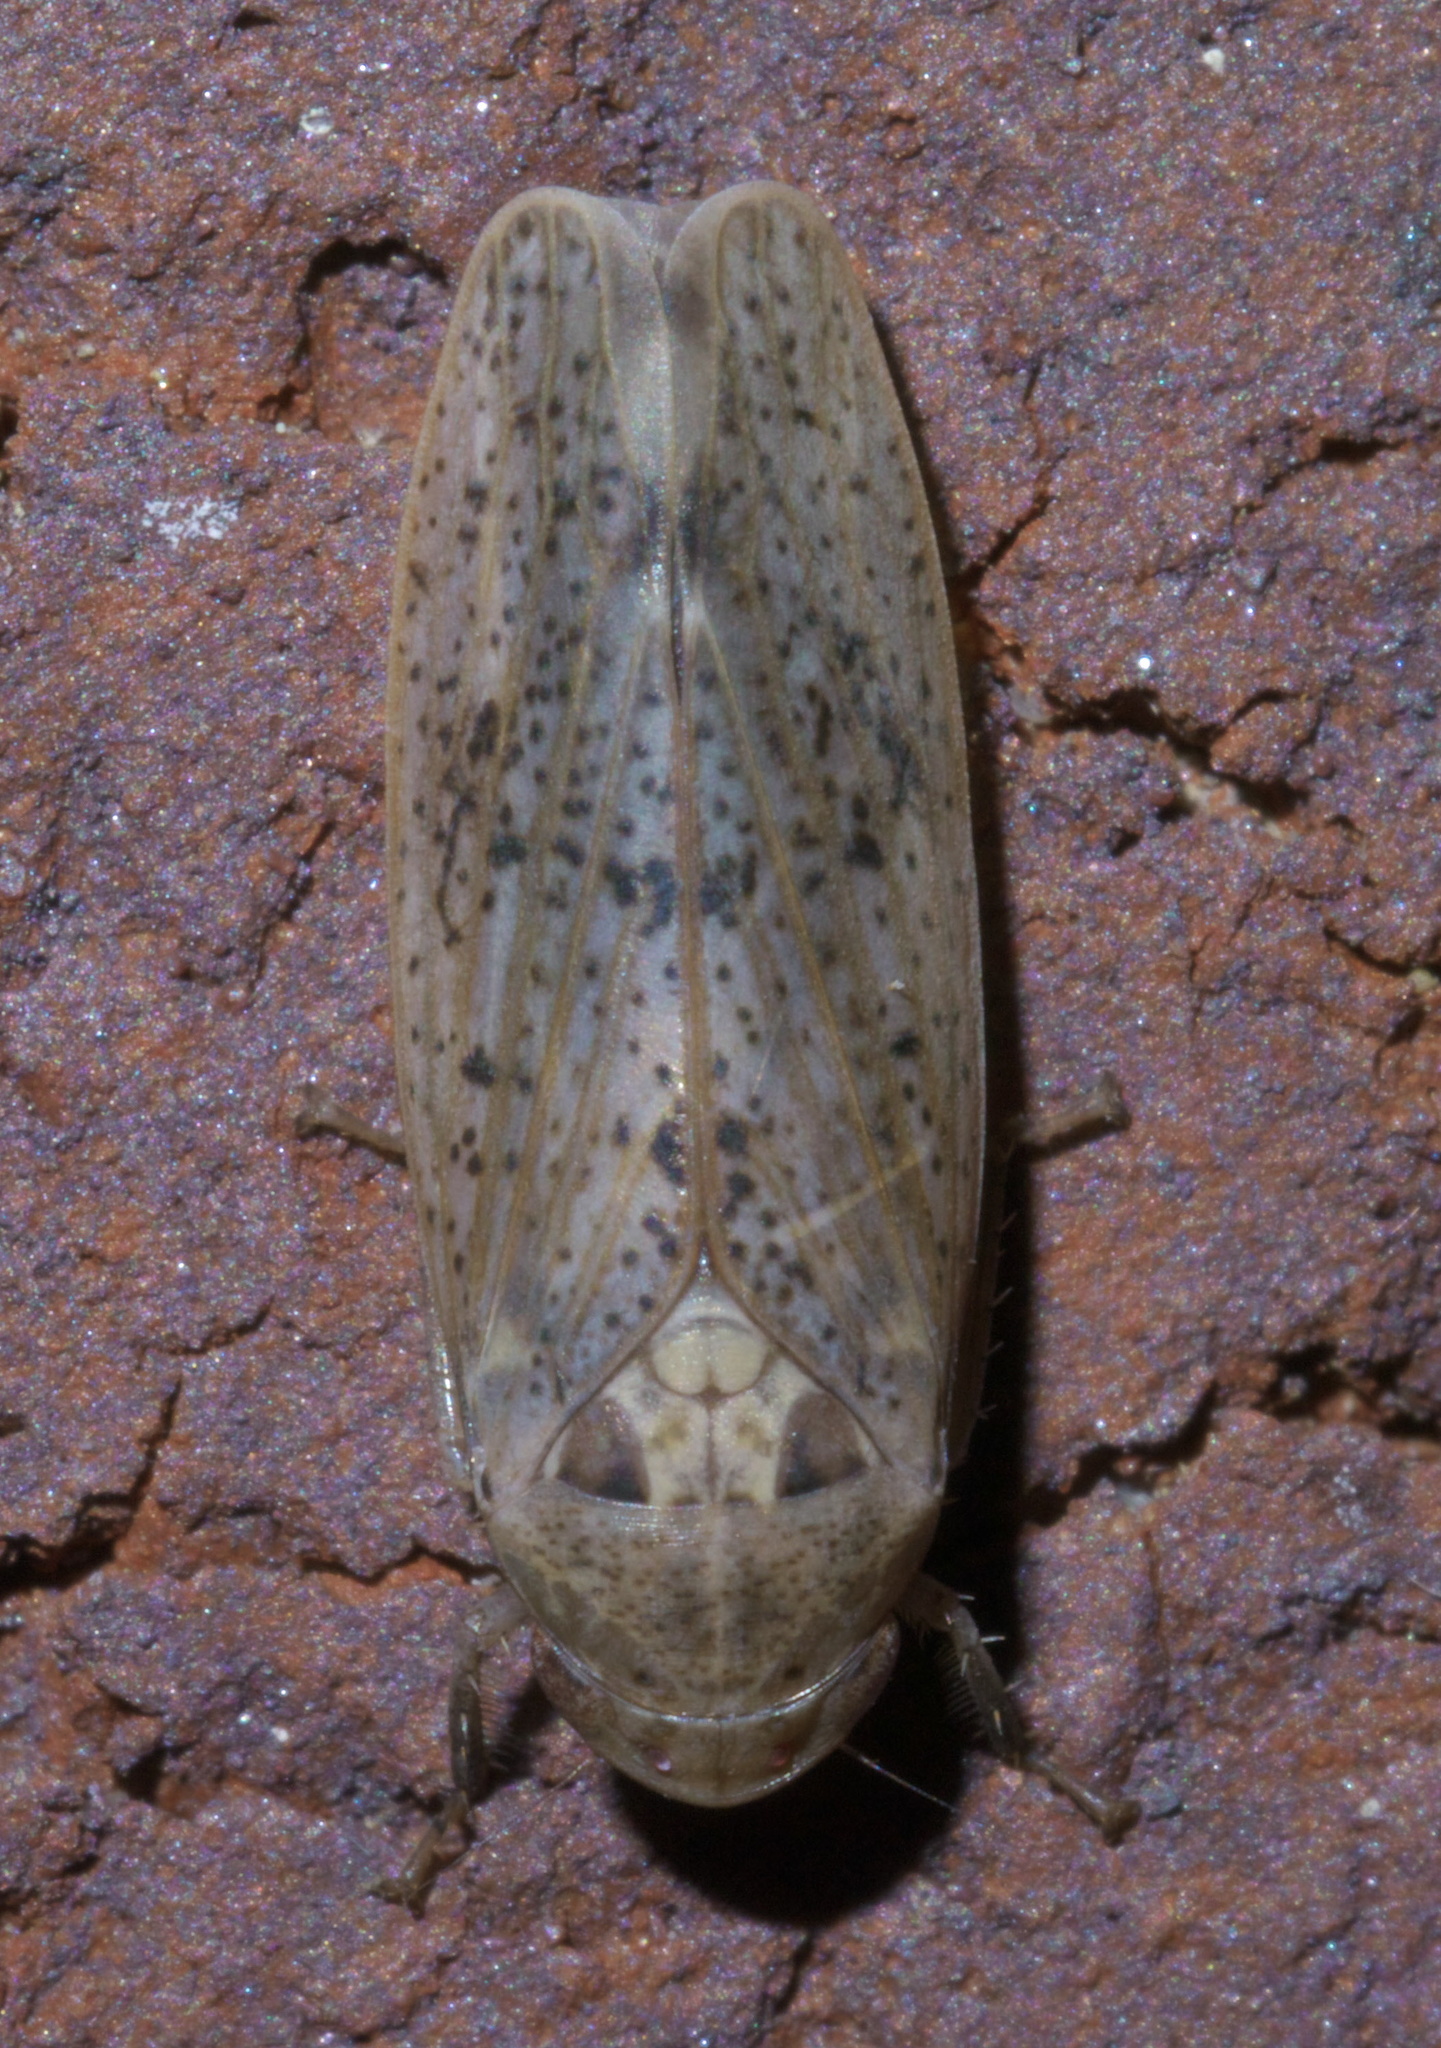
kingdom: Animalia
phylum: Arthropoda
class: Insecta
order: Hemiptera
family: Cicadellidae
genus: Ponana
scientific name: Ponana puncticollis
